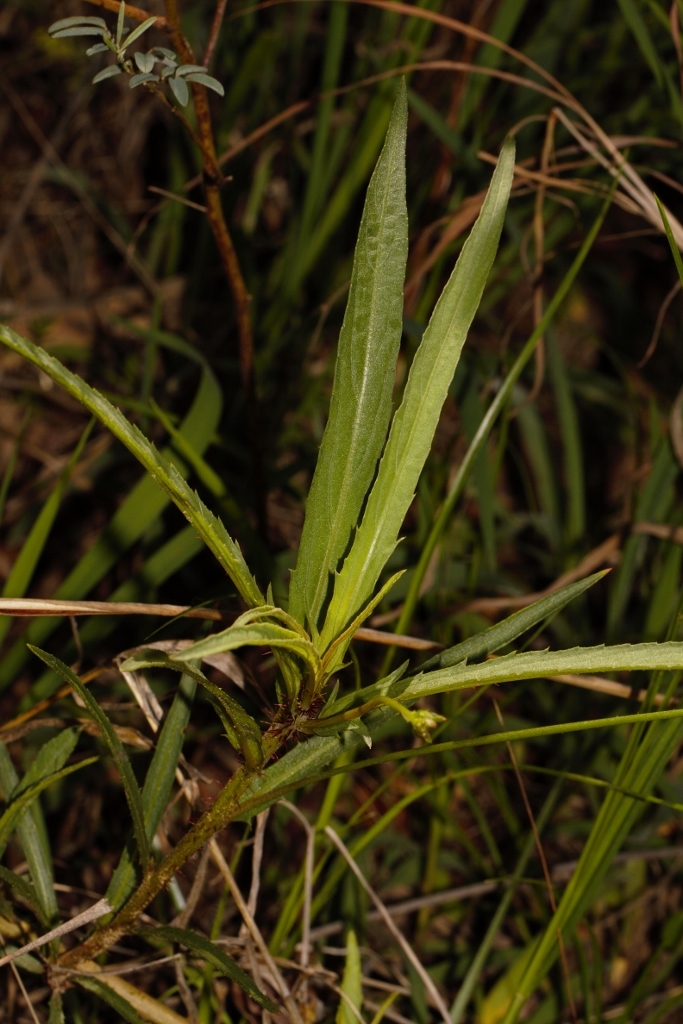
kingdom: Plantae
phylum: Tracheophyta
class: Magnoliopsida
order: Malpighiales
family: Turneraceae
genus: Tricliceras
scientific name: Tricliceras longepedunculatum
